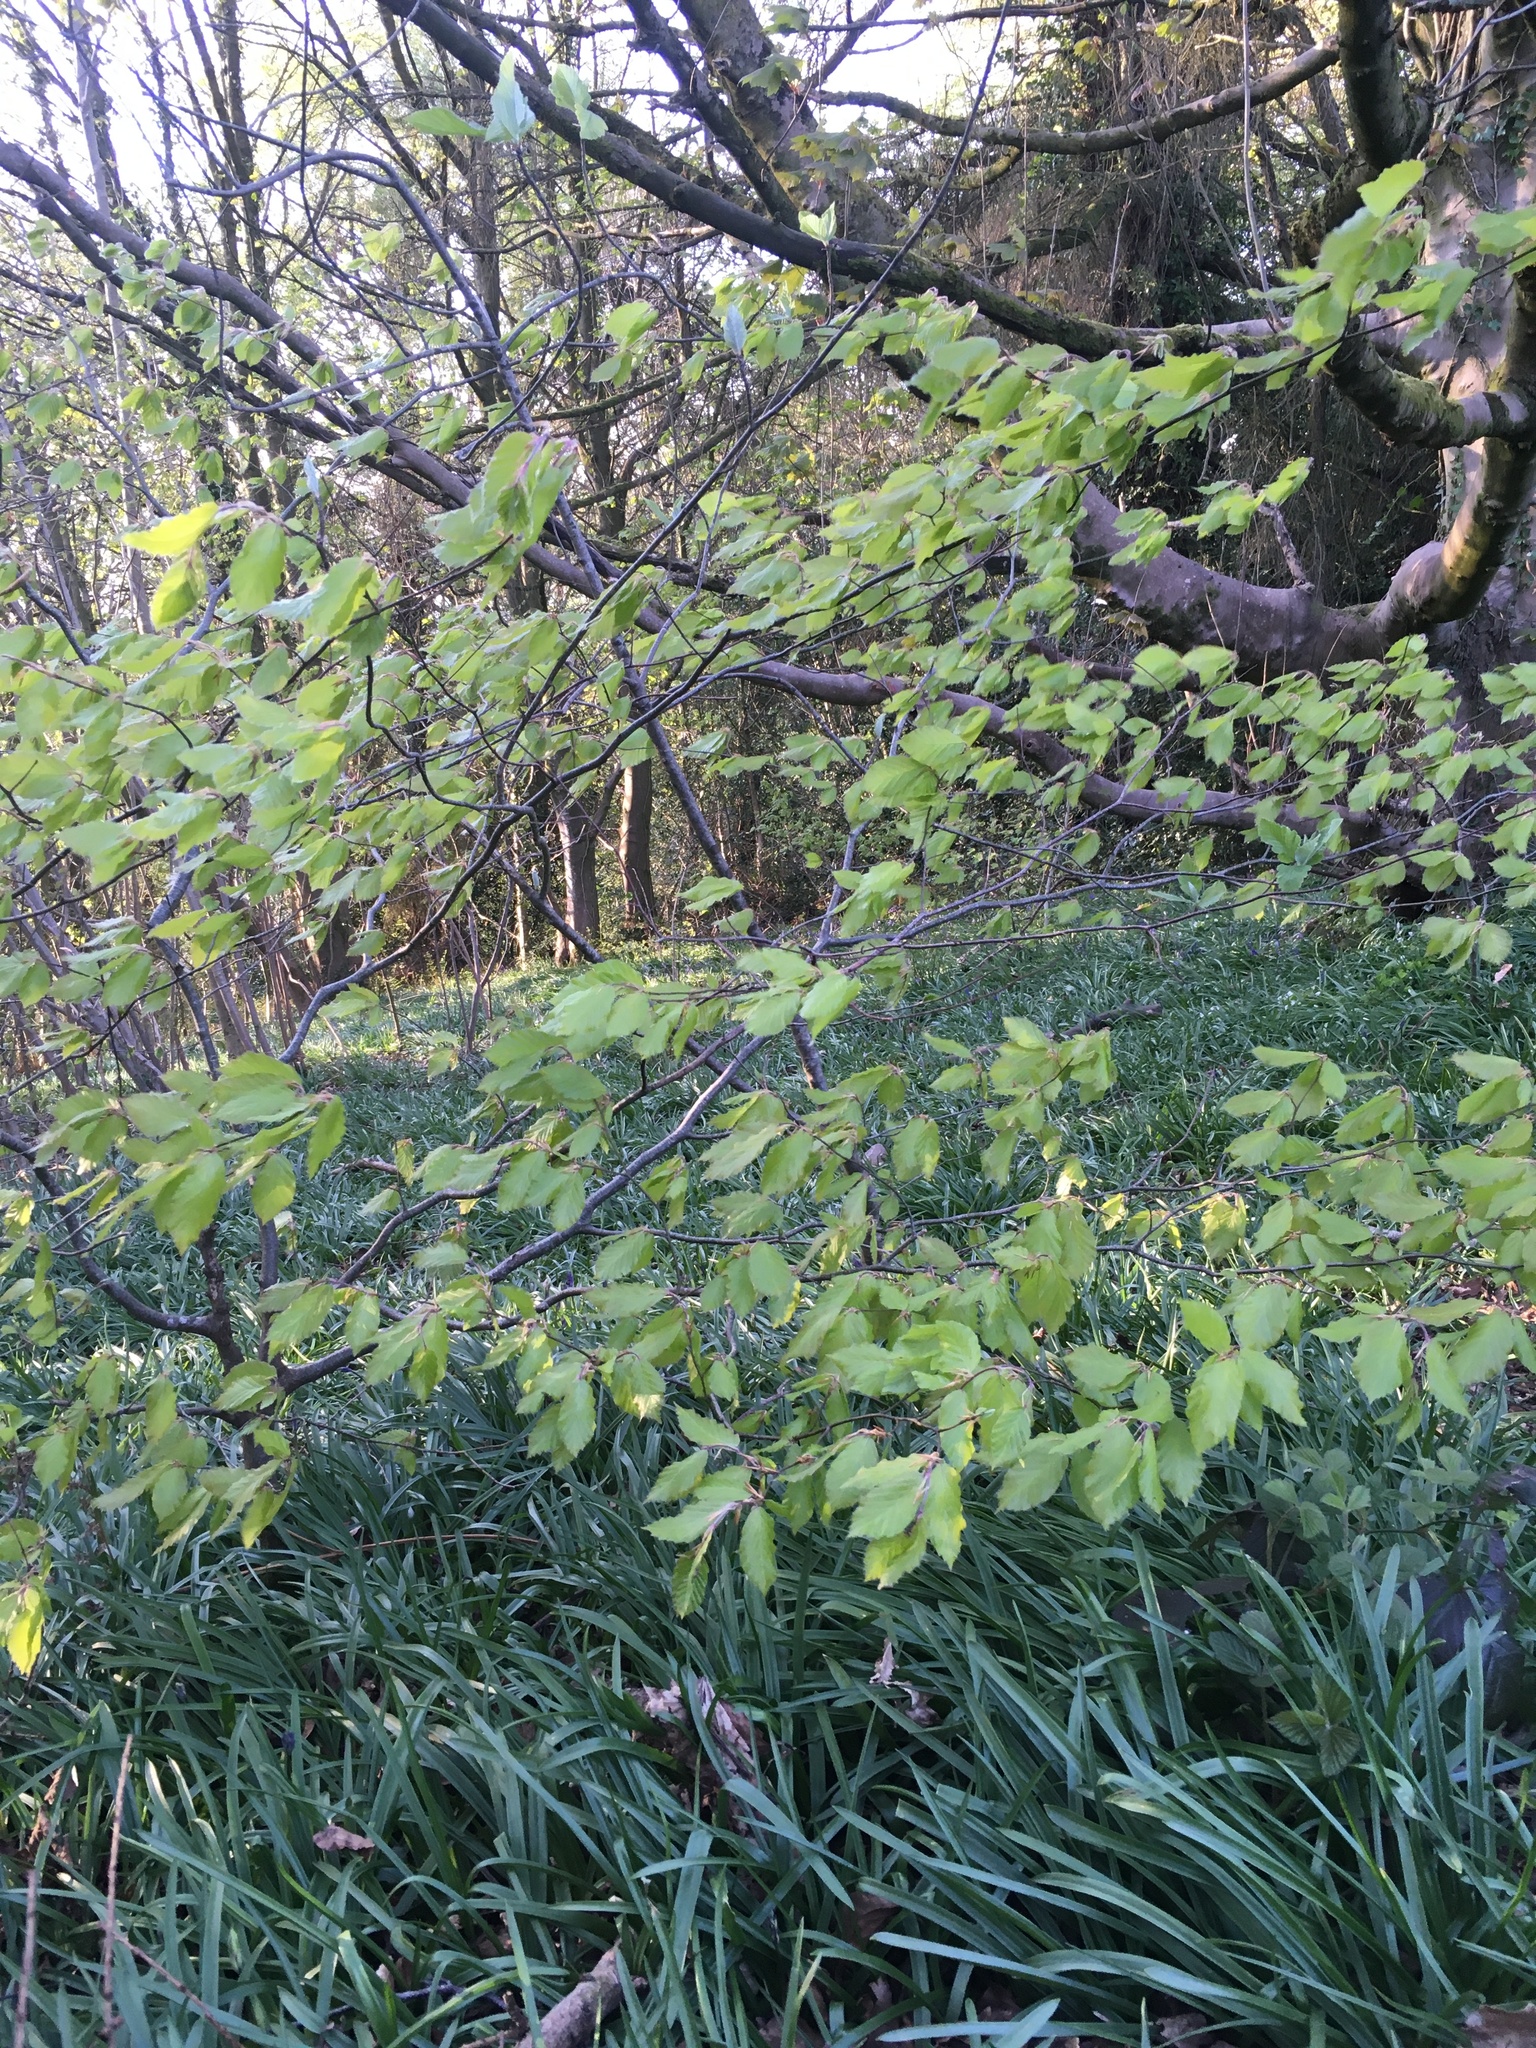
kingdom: Plantae
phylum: Tracheophyta
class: Magnoliopsida
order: Fagales
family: Fagaceae
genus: Fagus
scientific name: Fagus sylvatica
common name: Beech
